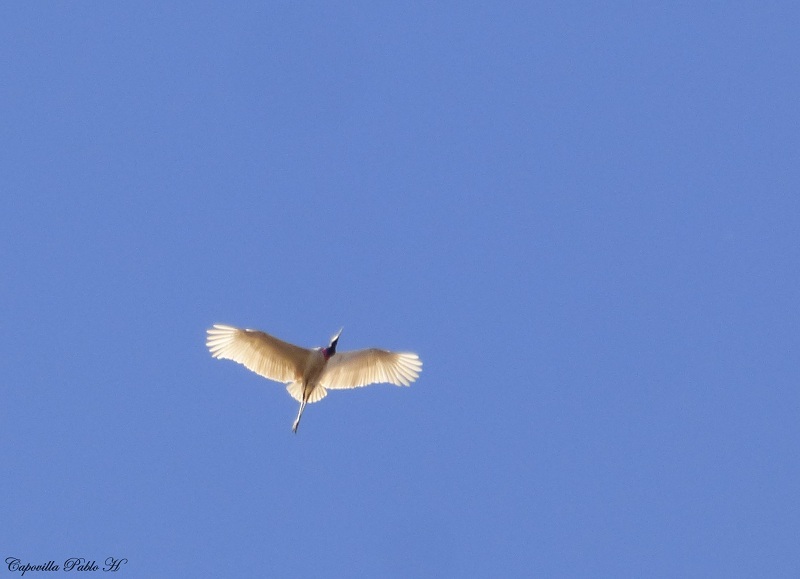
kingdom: Animalia
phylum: Chordata
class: Aves
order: Ciconiiformes
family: Ciconiidae
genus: Jabiru
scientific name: Jabiru mycteria
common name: Jabiru
